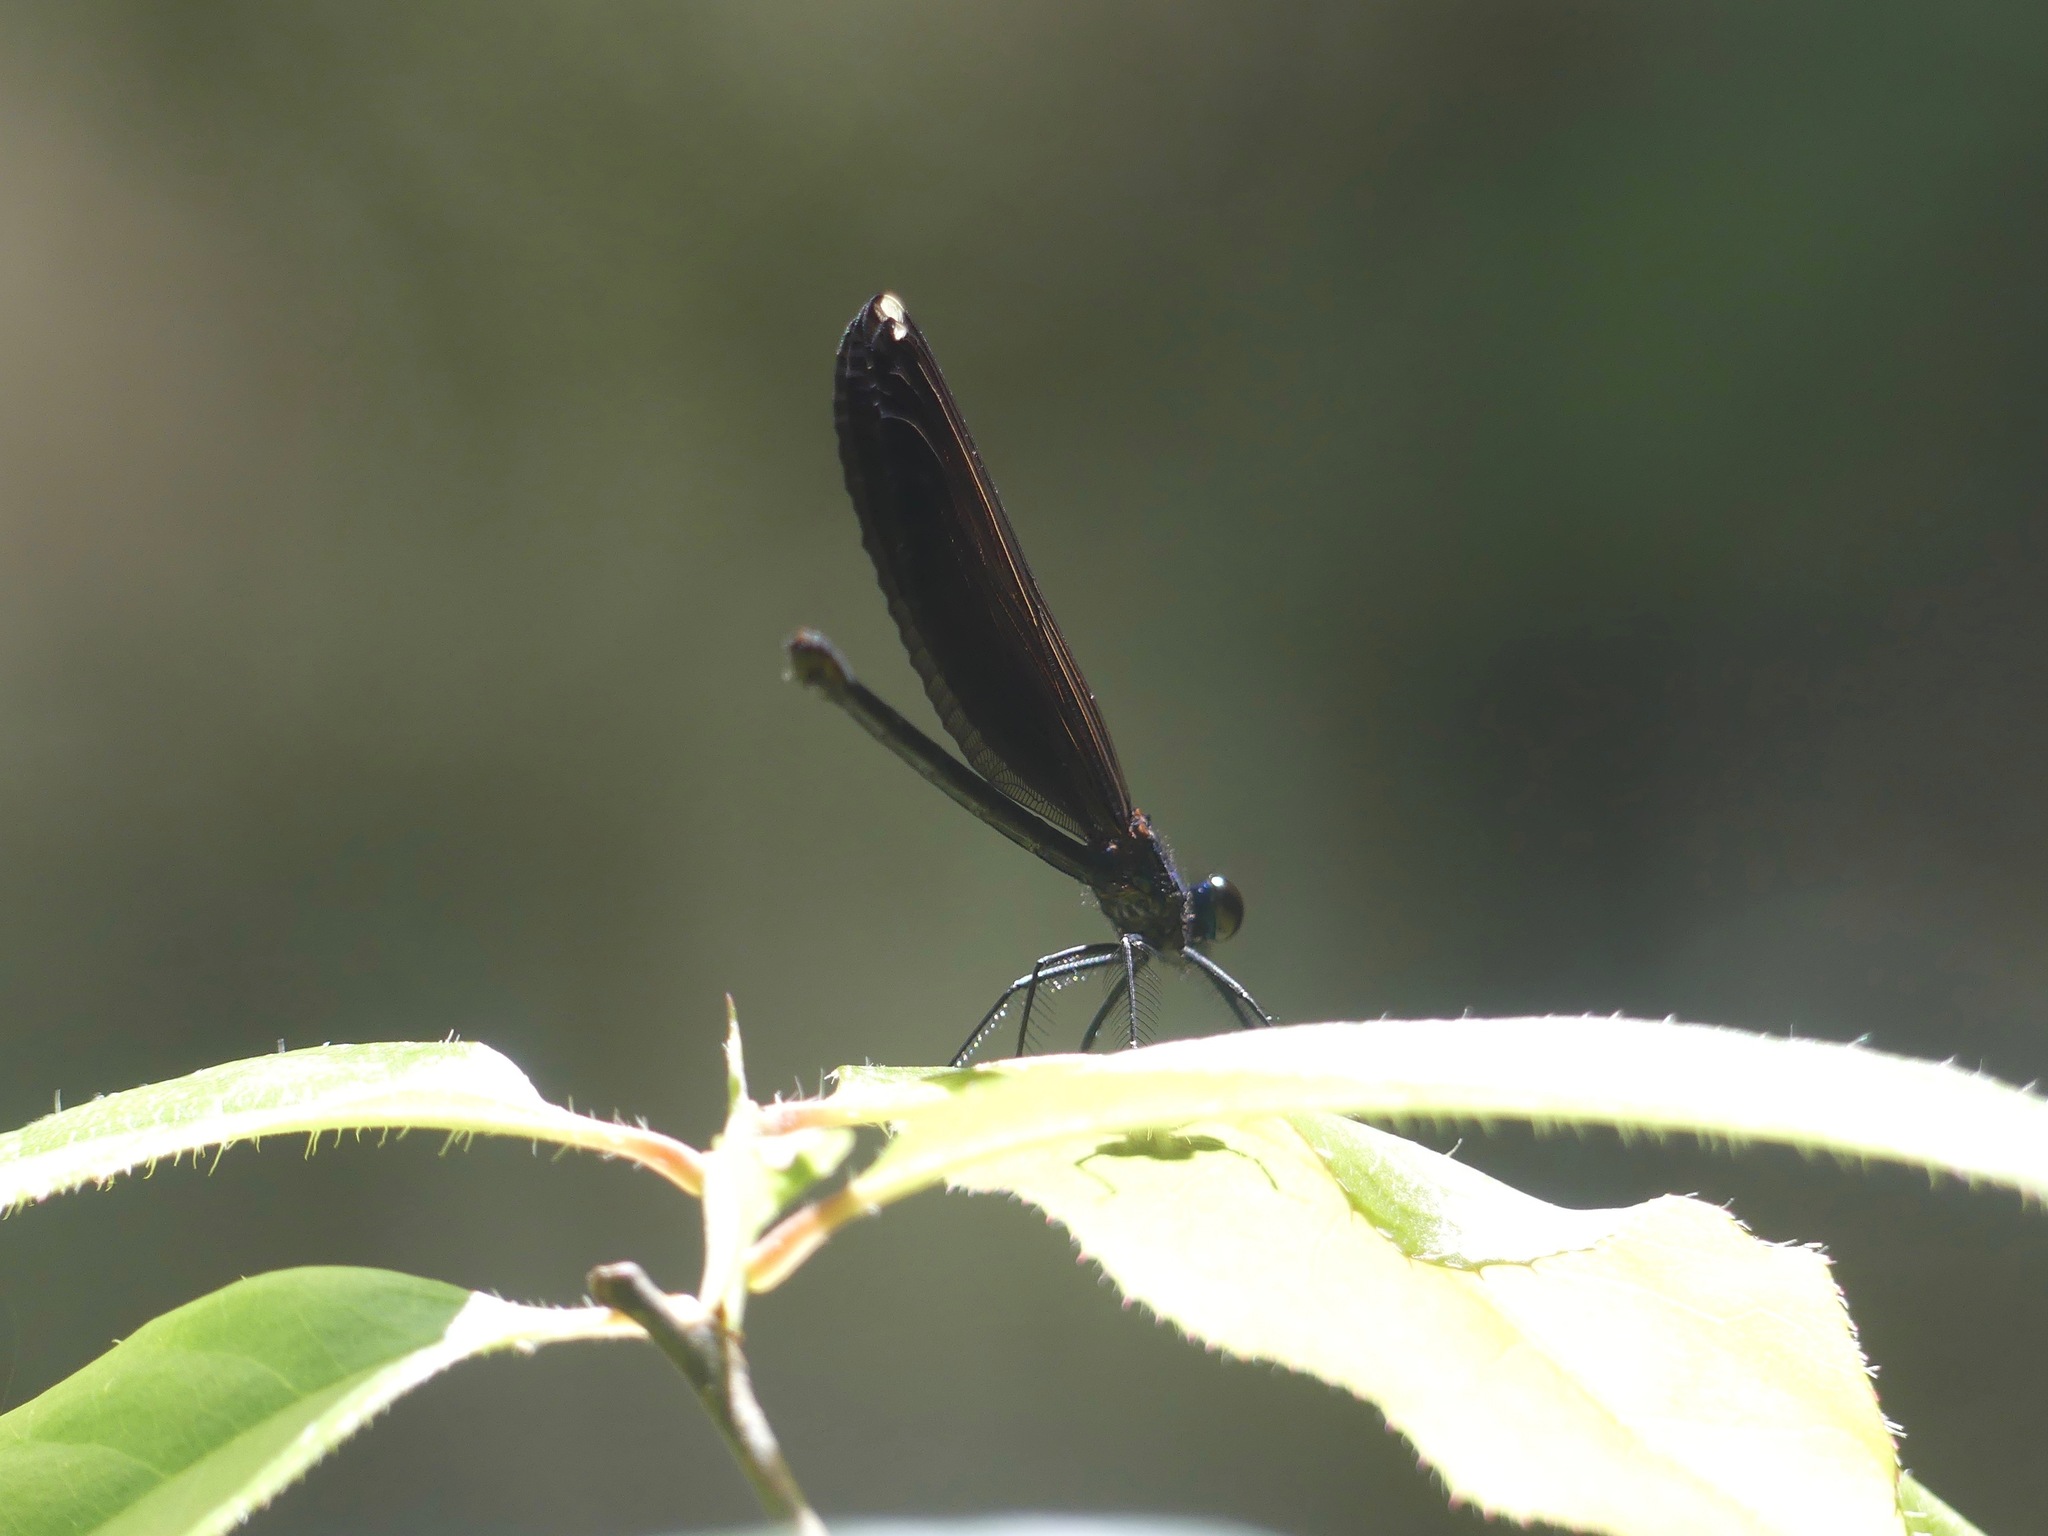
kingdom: Animalia
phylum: Arthropoda
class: Insecta
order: Odonata
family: Calopterygidae
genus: Calopteryx
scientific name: Calopteryx maculata
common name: Ebony jewelwing
